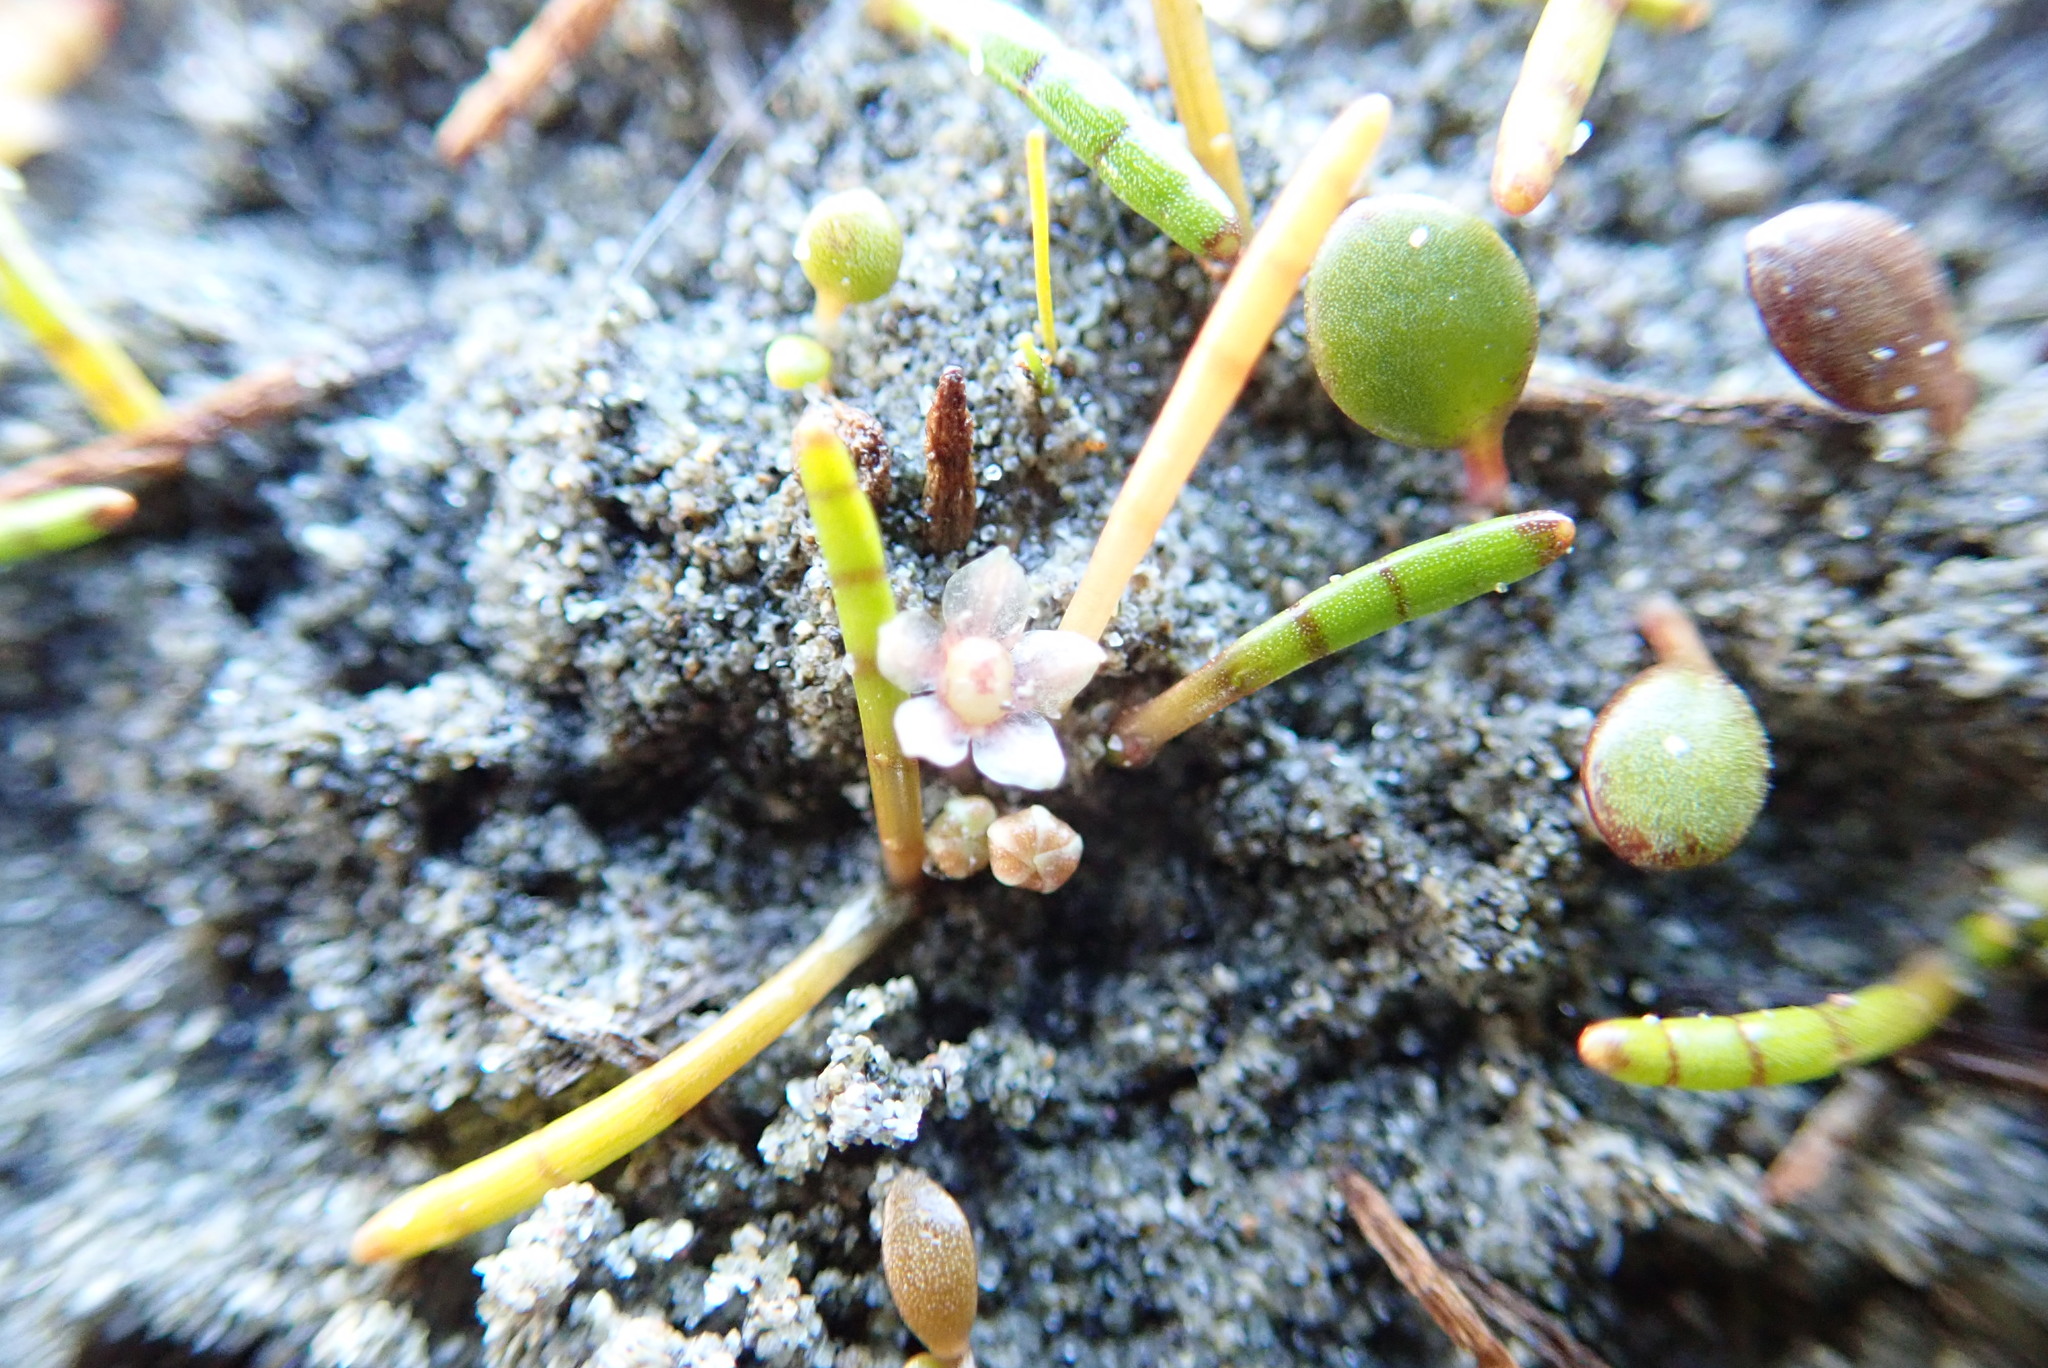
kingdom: Plantae
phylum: Tracheophyta
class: Magnoliopsida
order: Apiales
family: Apiaceae
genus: Lilaeopsis
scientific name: Lilaeopsis novae-zelandiae
